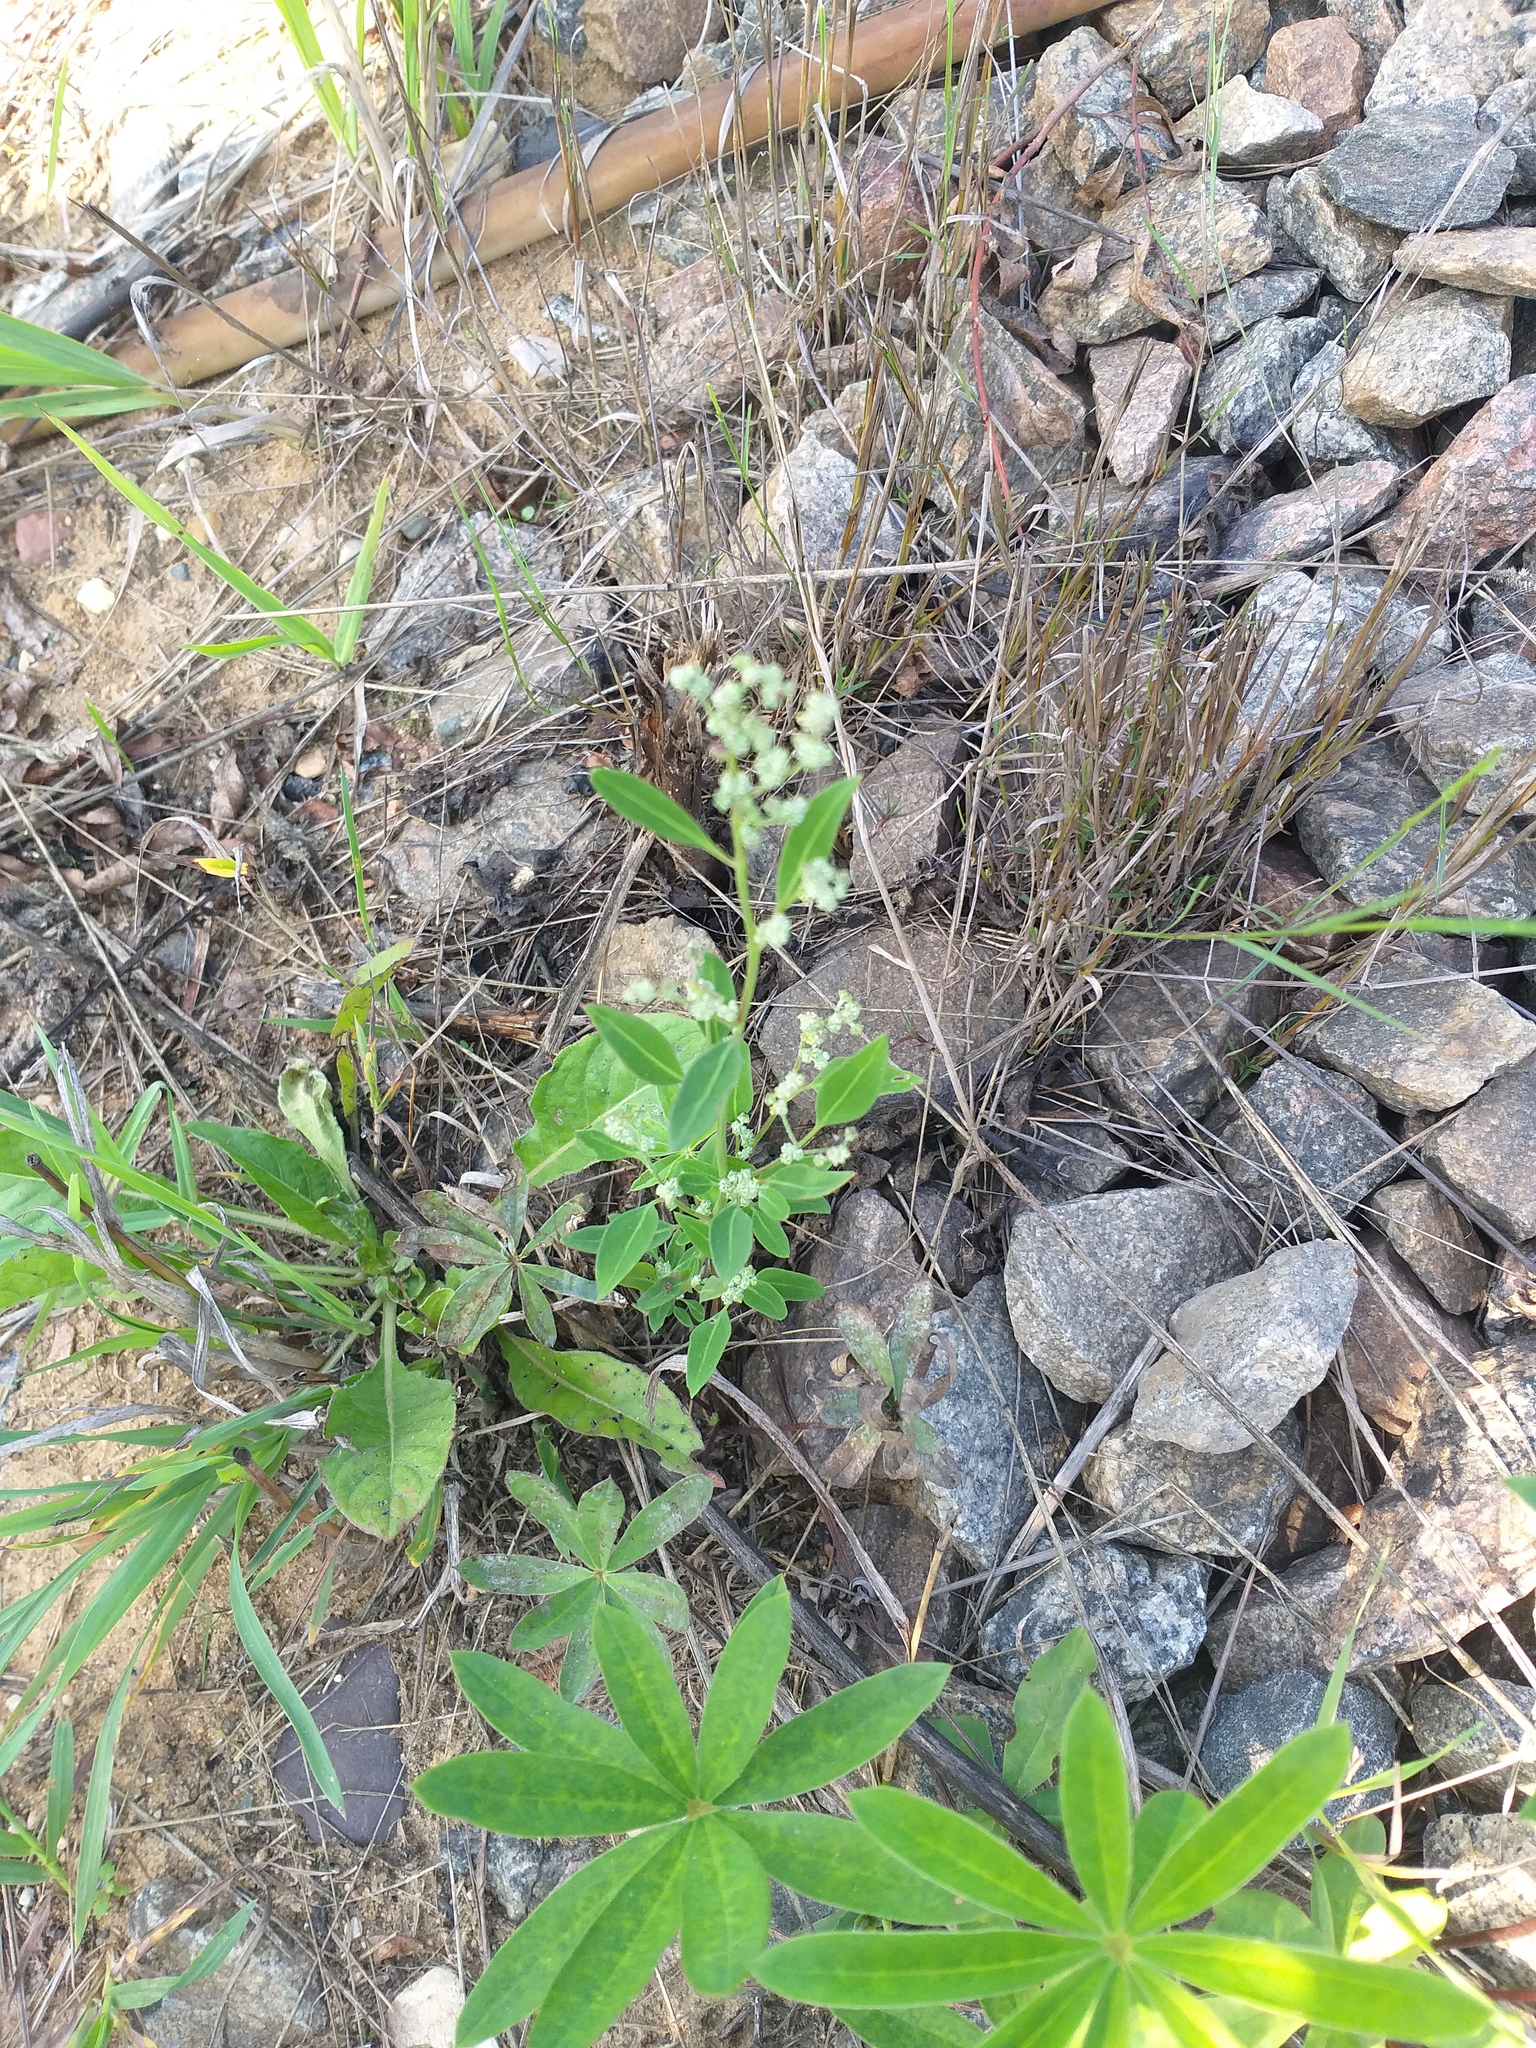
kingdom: Plantae
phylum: Tracheophyta
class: Magnoliopsida
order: Caryophyllales
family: Amaranthaceae
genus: Chenopodium
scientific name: Chenopodium album
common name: Fat-hen
